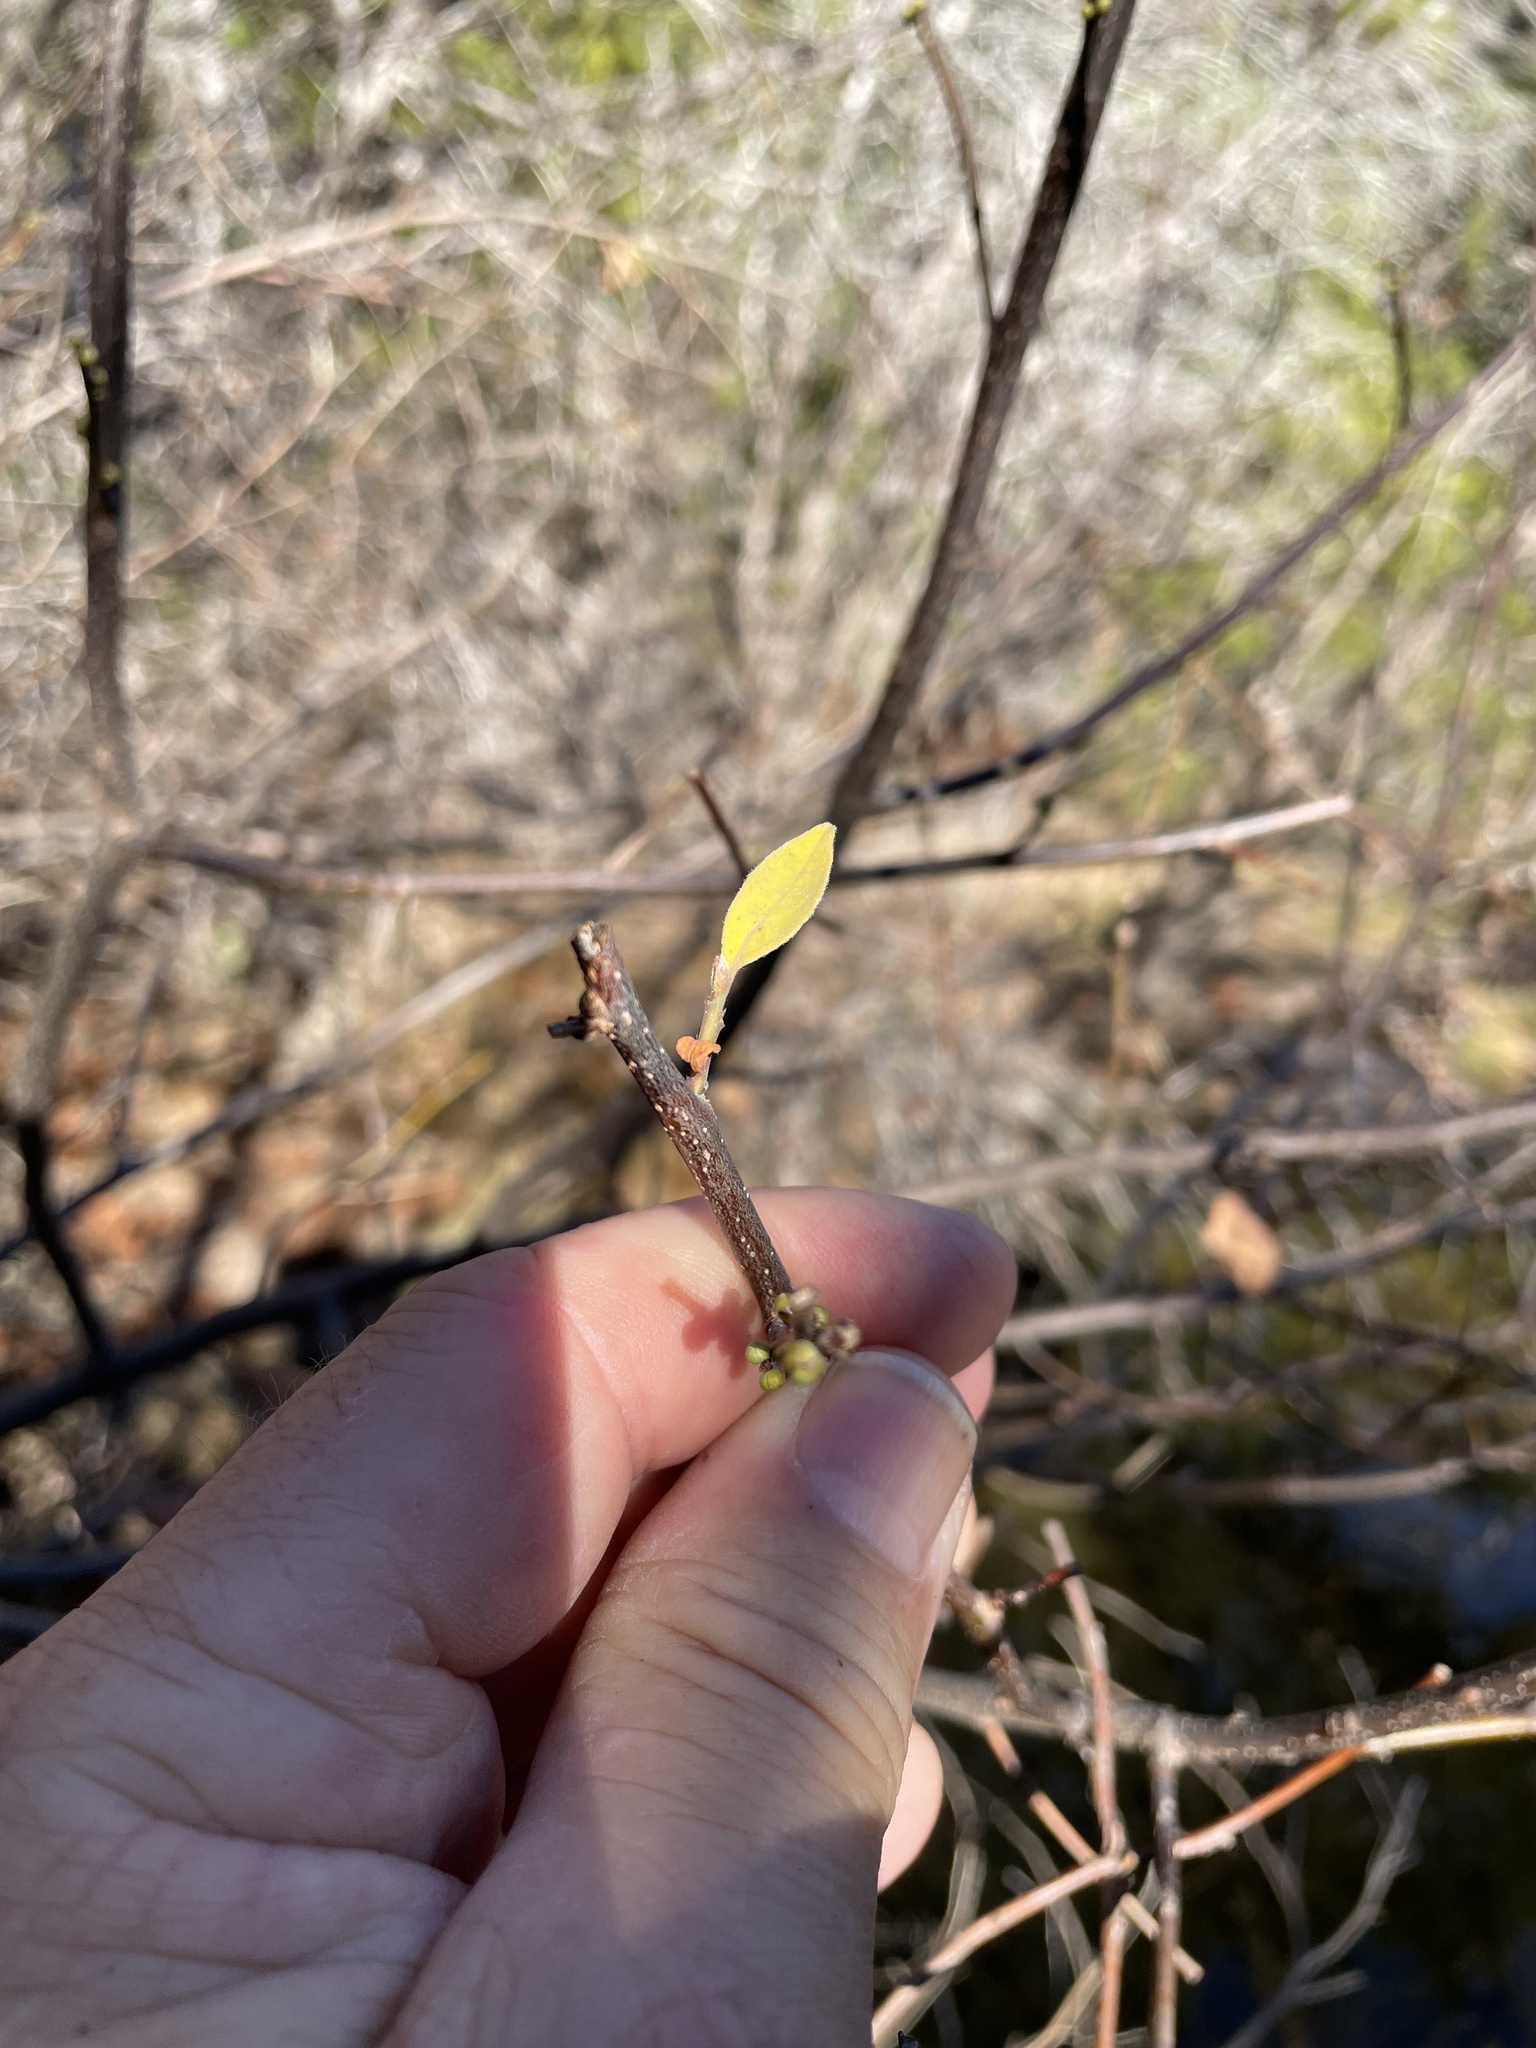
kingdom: Plantae
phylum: Tracheophyta
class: Magnoliopsida
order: Laurales
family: Lauraceae
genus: Lindera
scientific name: Lindera benzoin
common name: Spicebush
